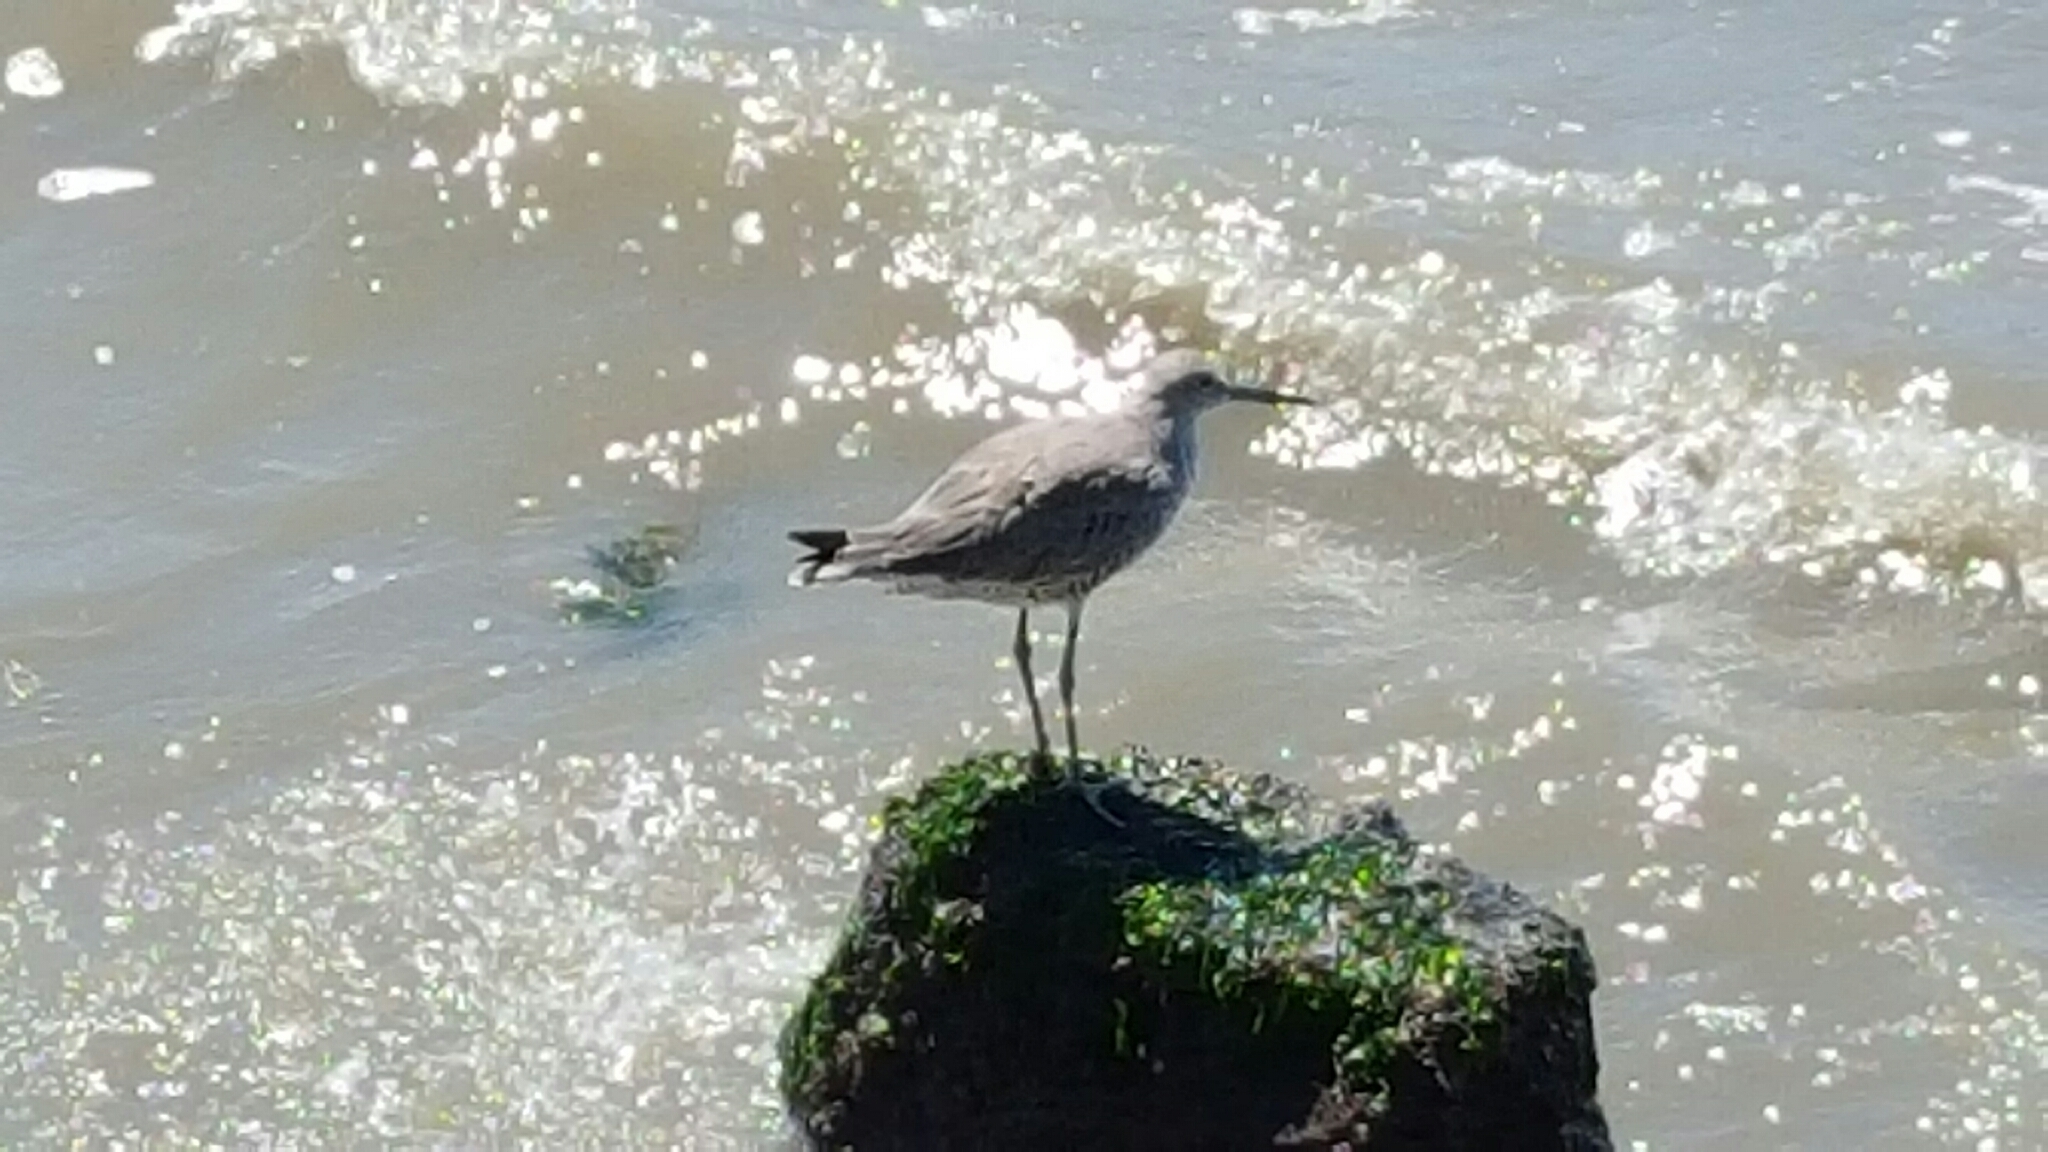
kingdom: Animalia
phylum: Chordata
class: Aves
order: Charadriiformes
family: Scolopacidae
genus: Tringa
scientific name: Tringa semipalmata
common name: Willet
